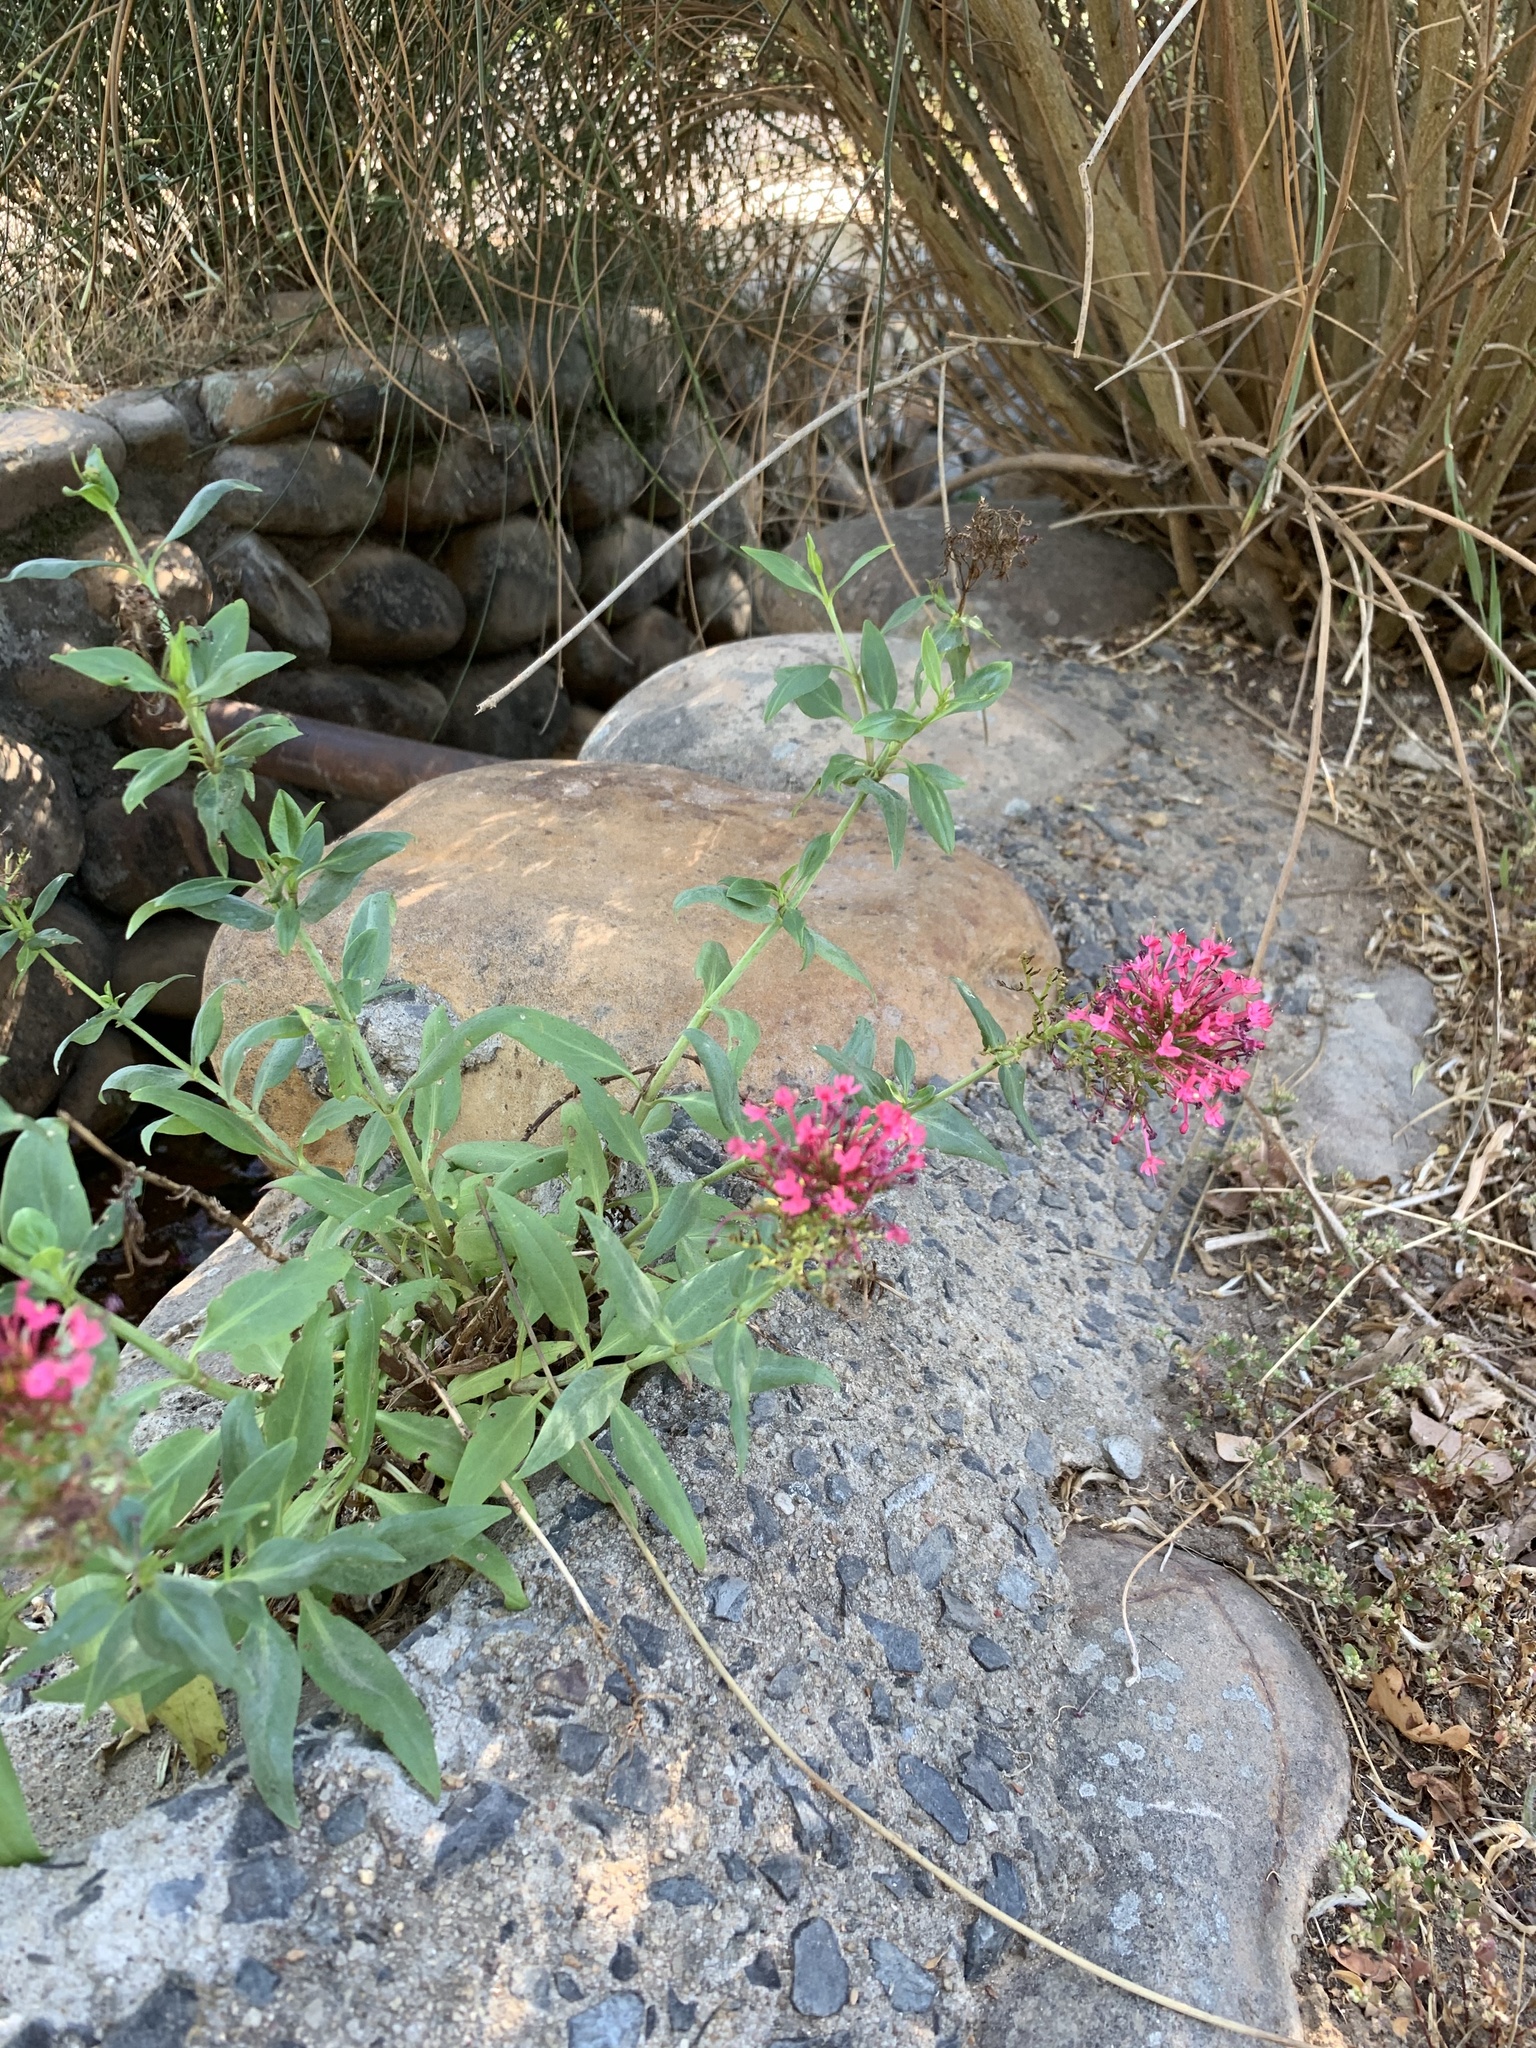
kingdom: Plantae
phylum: Tracheophyta
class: Magnoliopsida
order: Dipsacales
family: Caprifoliaceae
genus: Centranthus
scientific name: Centranthus ruber
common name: Red valerian
